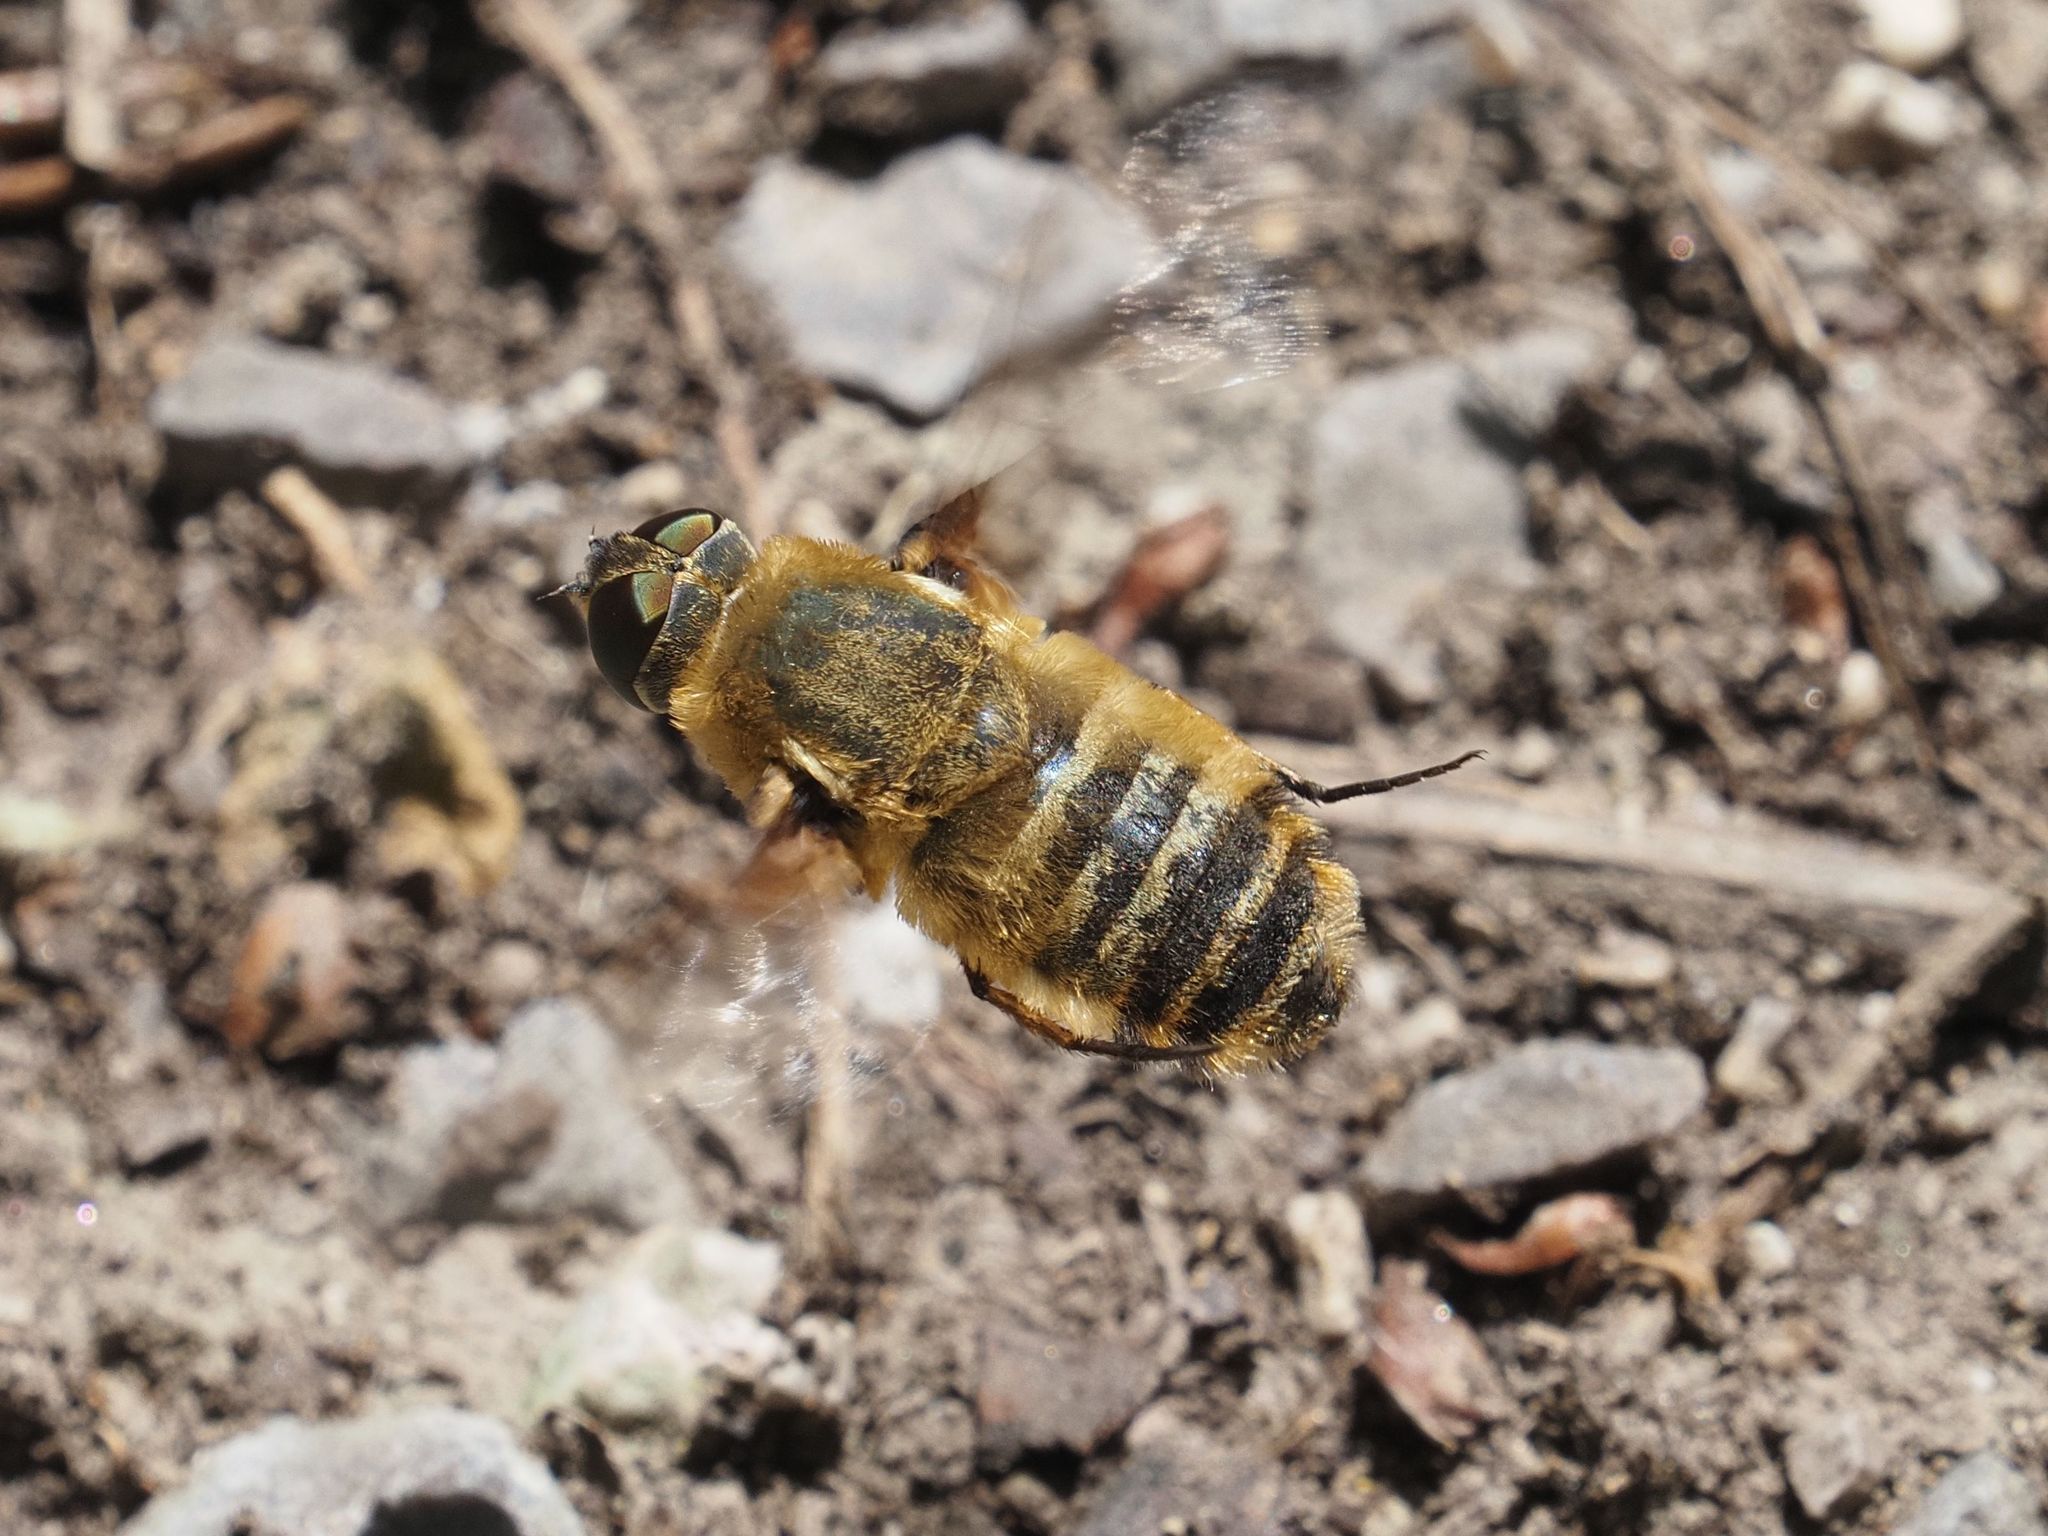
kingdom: Animalia
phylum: Arthropoda
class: Insecta
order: Diptera
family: Bombyliidae
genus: Villa
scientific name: Villa hottentotta
